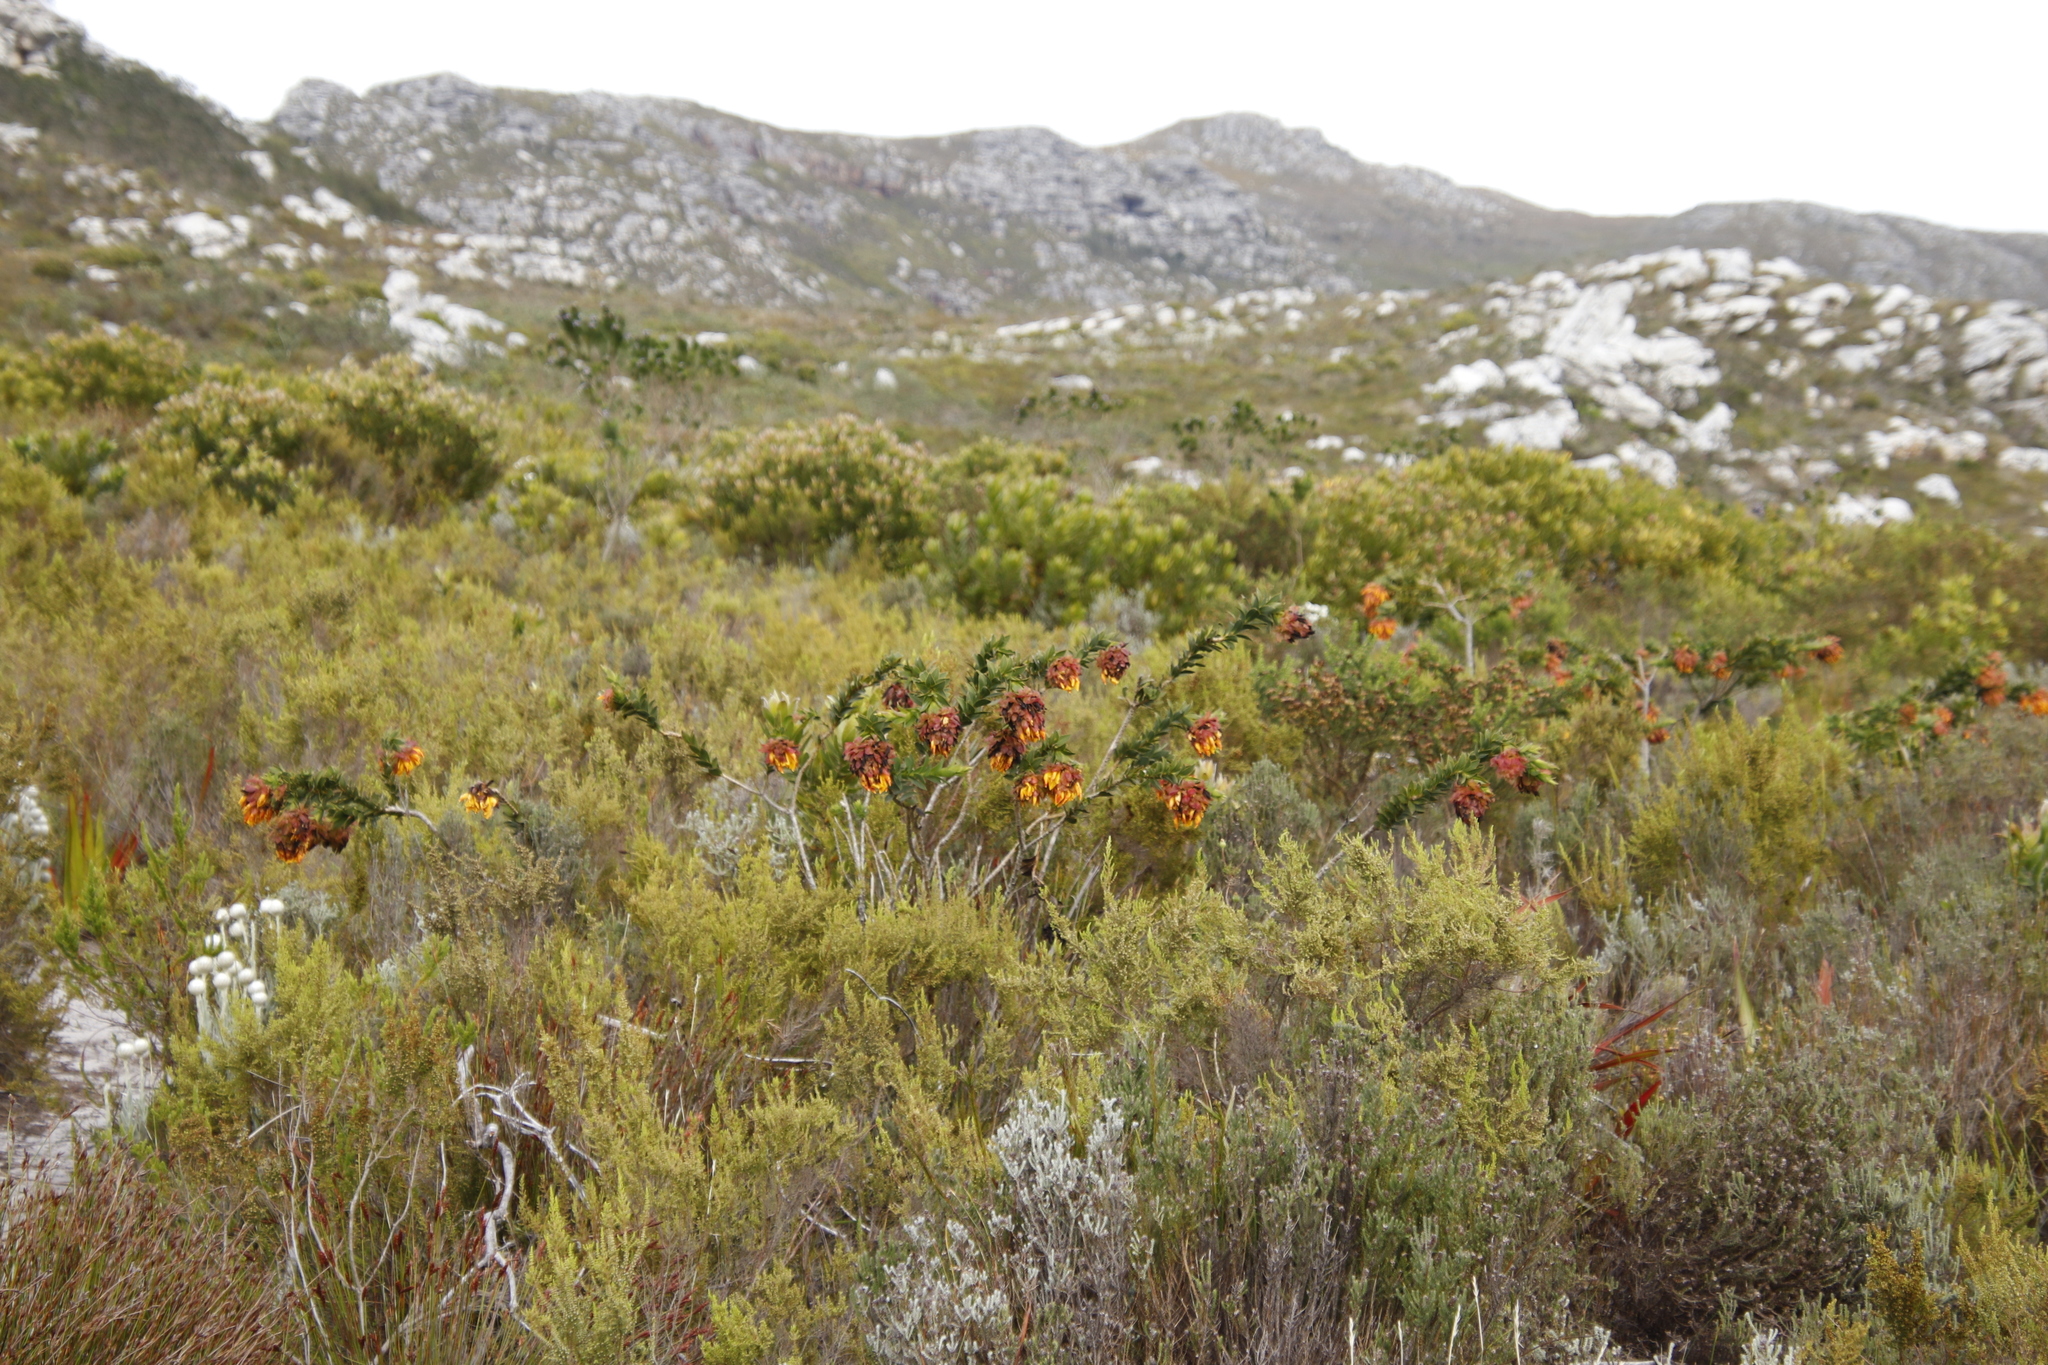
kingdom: Plantae
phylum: Tracheophyta
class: Magnoliopsida
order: Fabales
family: Fabaceae
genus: Liparia
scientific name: Liparia splendens
